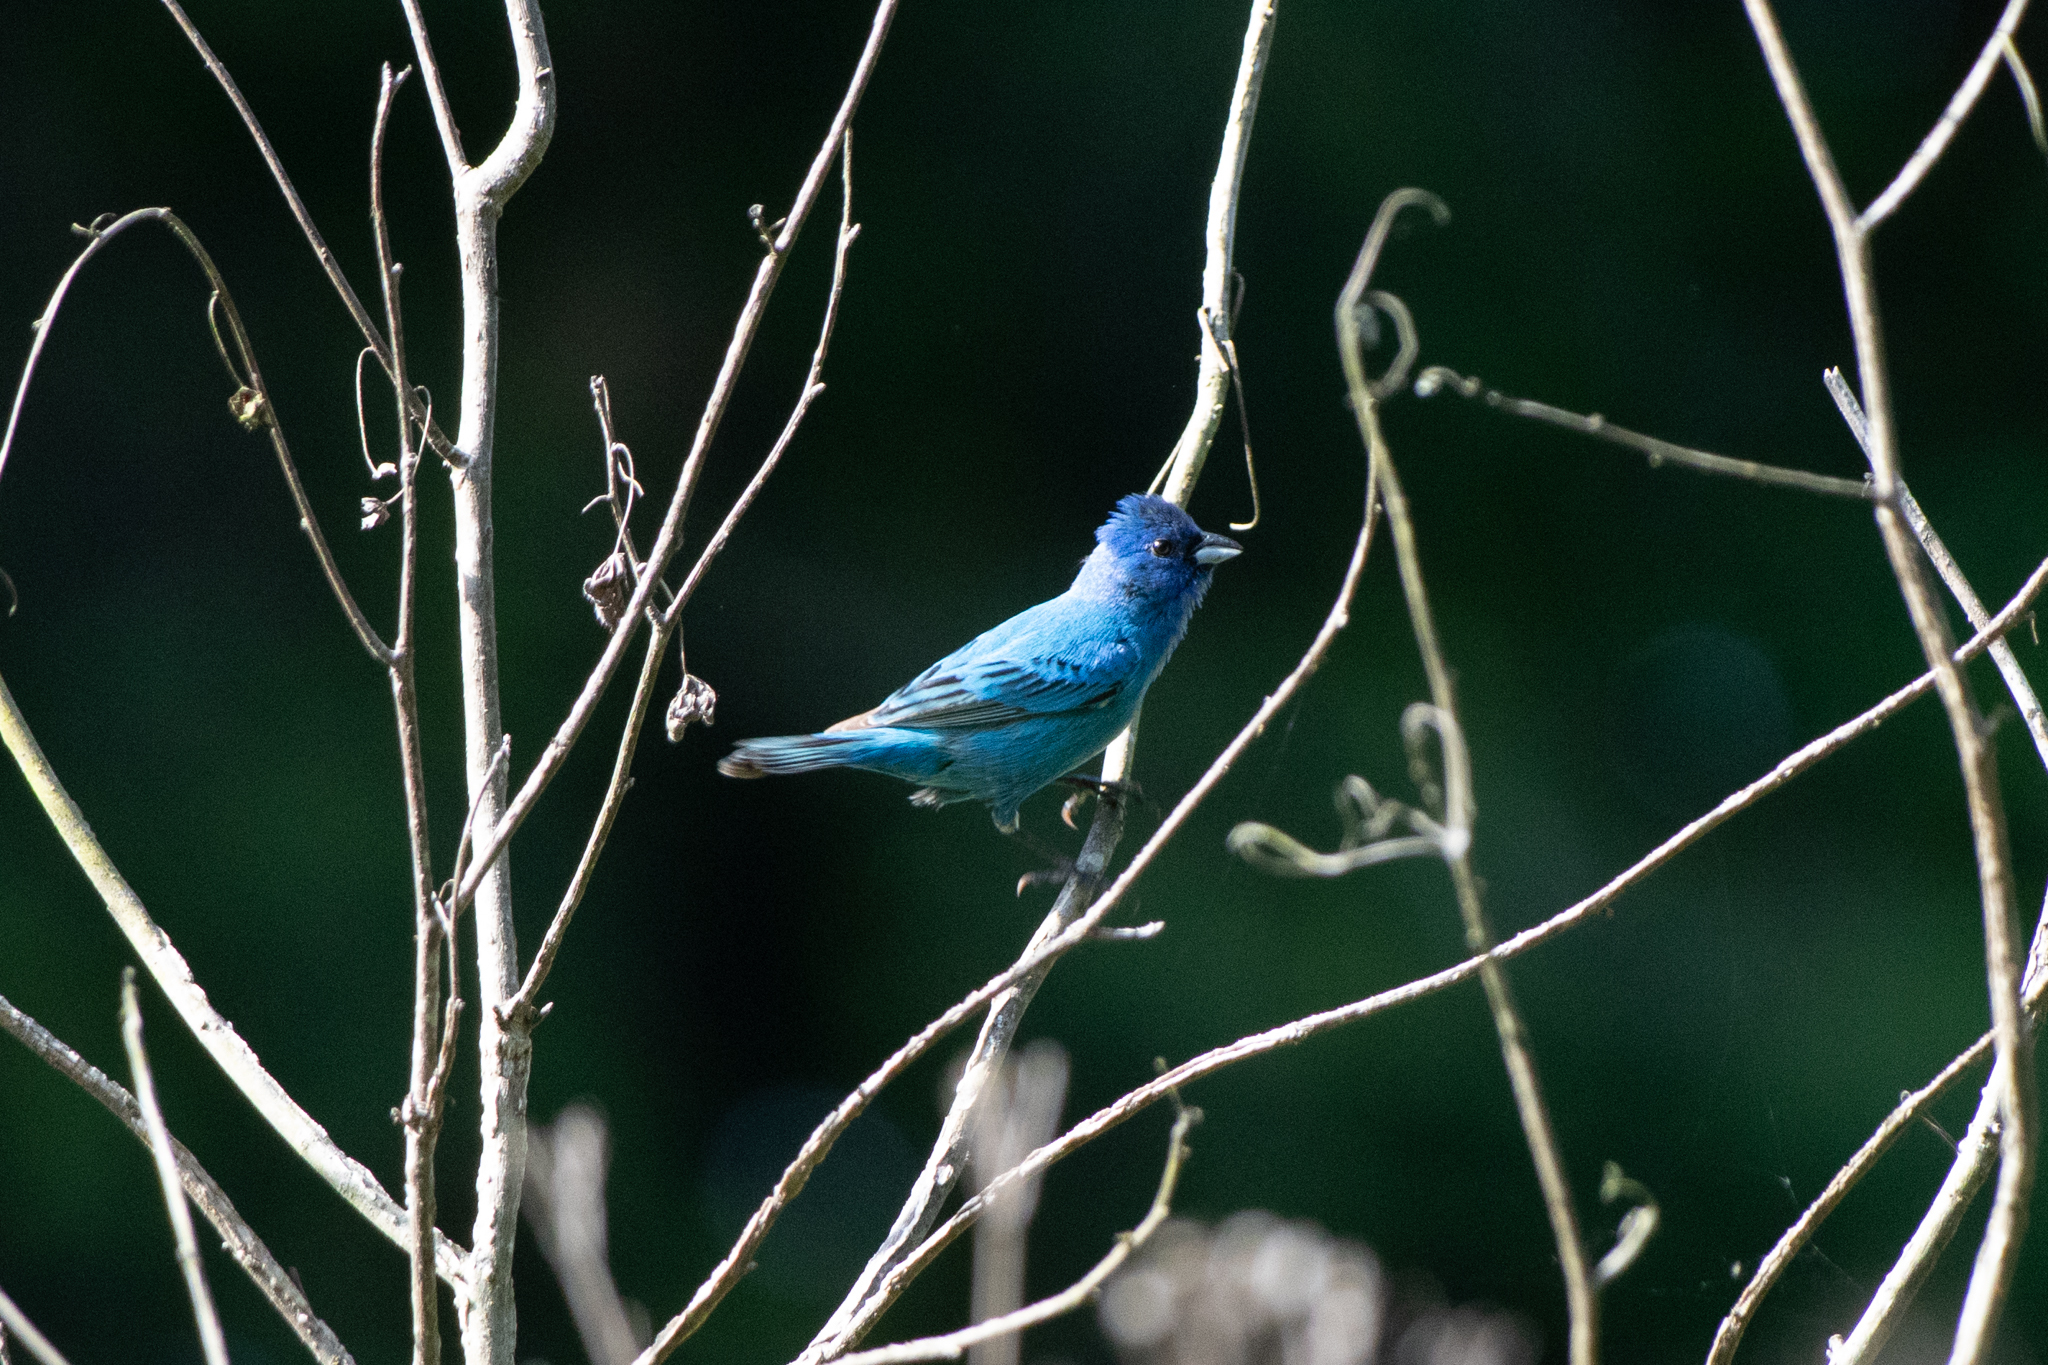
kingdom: Animalia
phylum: Chordata
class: Aves
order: Passeriformes
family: Cardinalidae
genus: Passerina
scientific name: Passerina cyanea
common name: Indigo bunting
